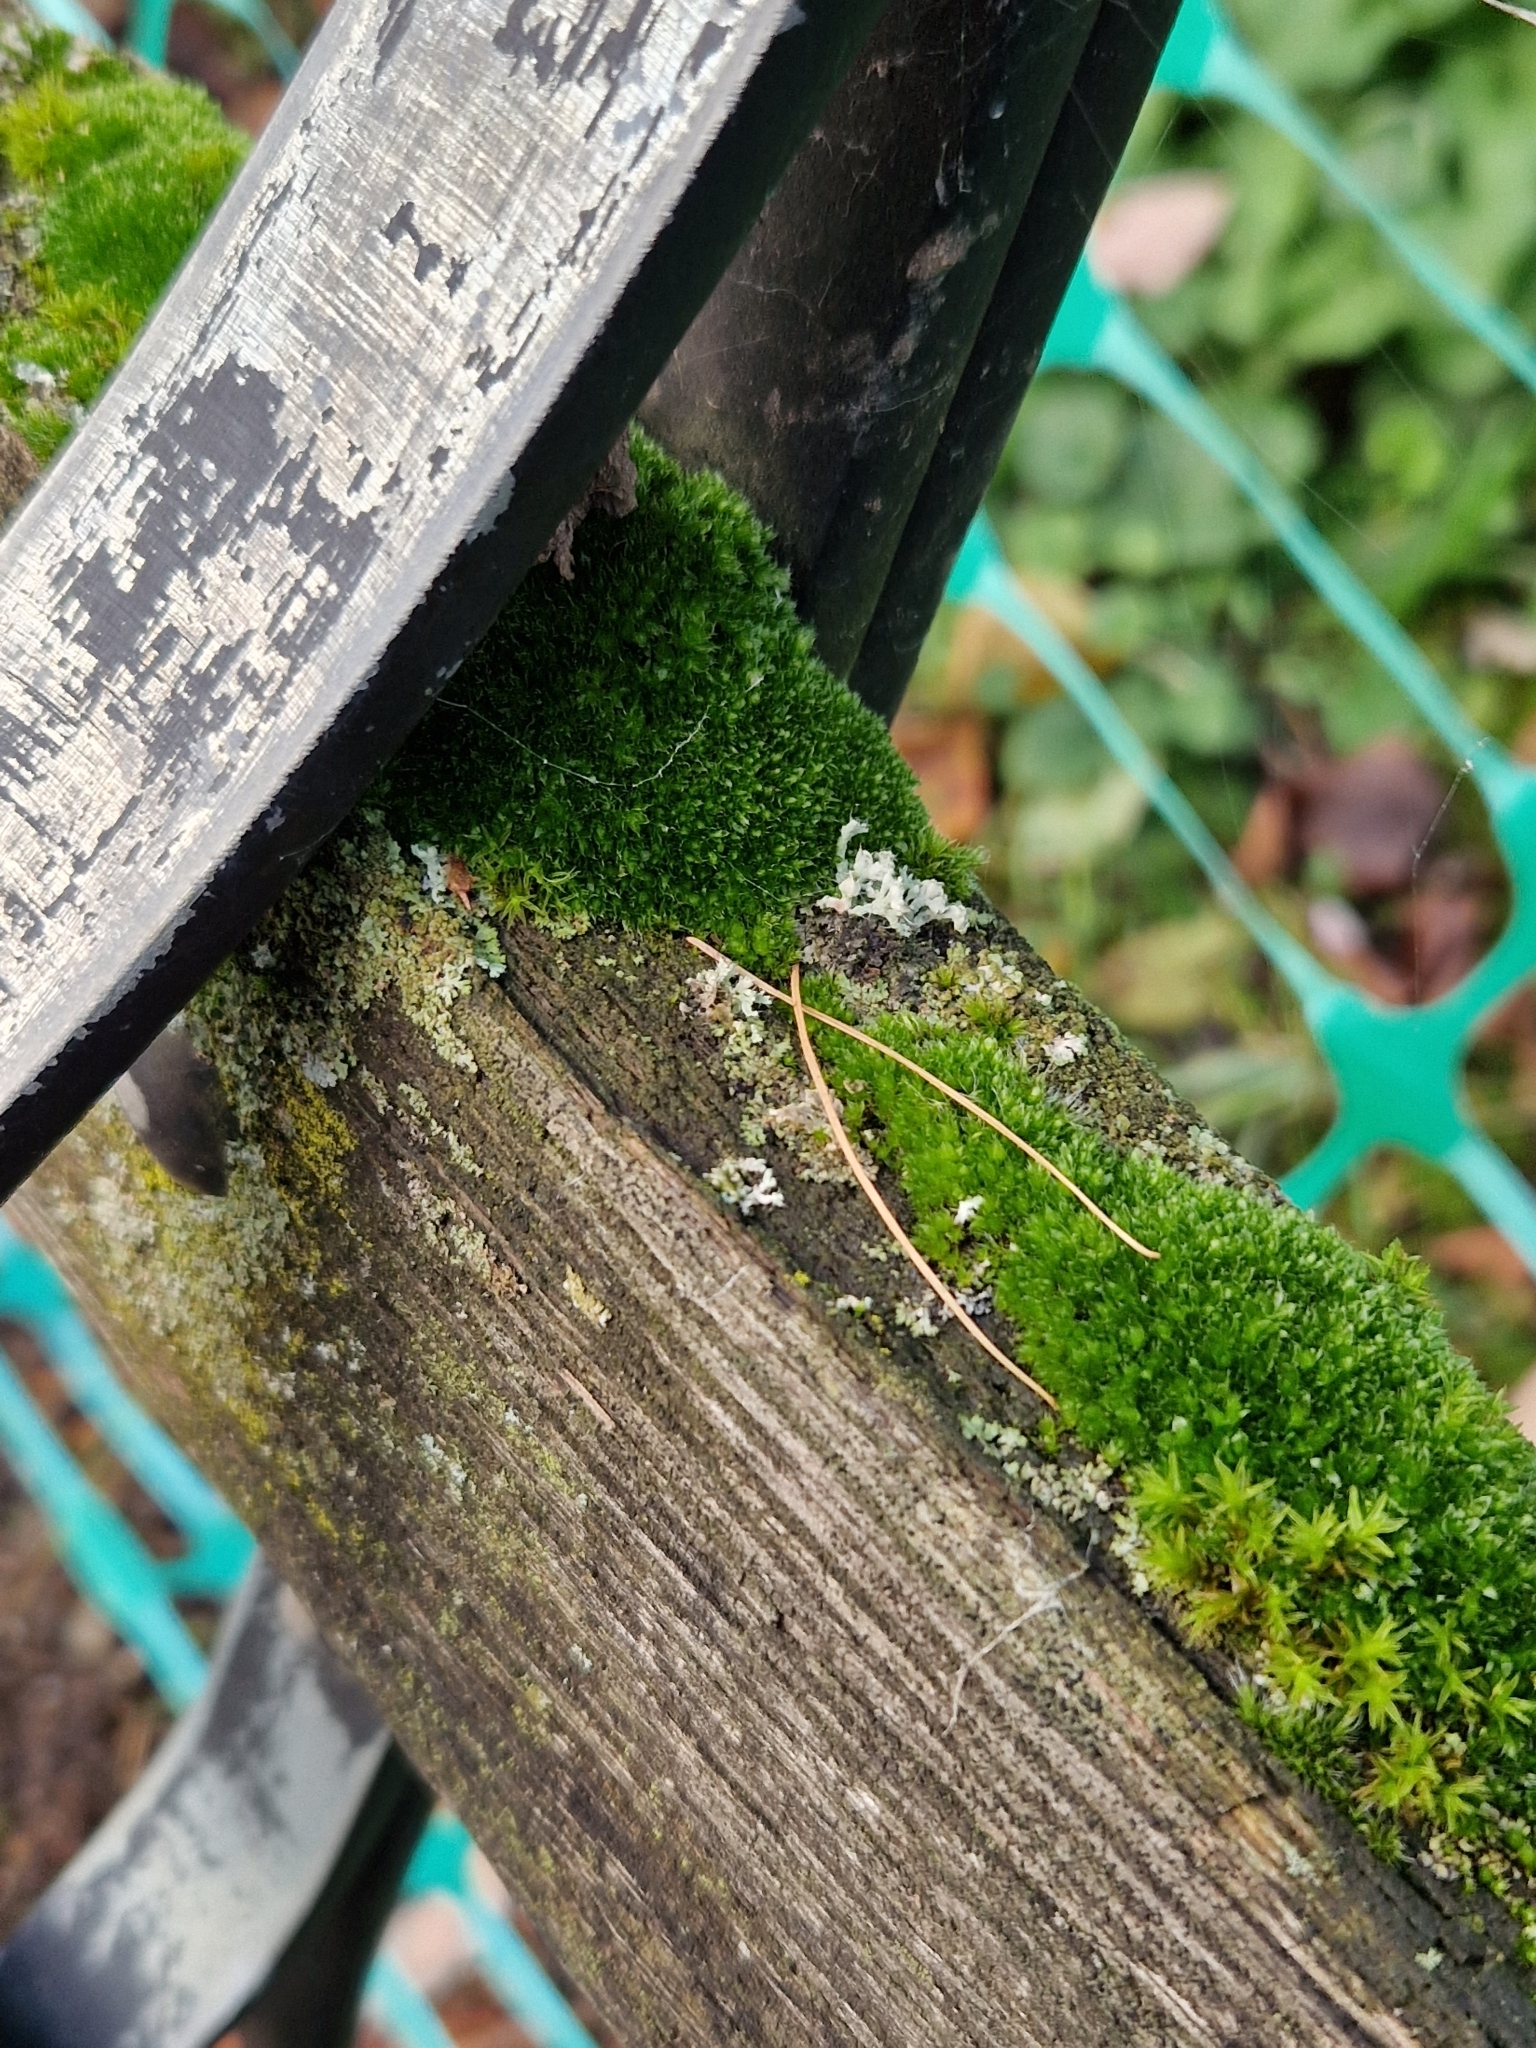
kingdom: Fungi
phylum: Ascomycota
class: Lecanoromycetes
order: Caliciales
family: Physciaceae
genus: Physcia
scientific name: Physcia adscendens
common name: Hooded rosette lichen
